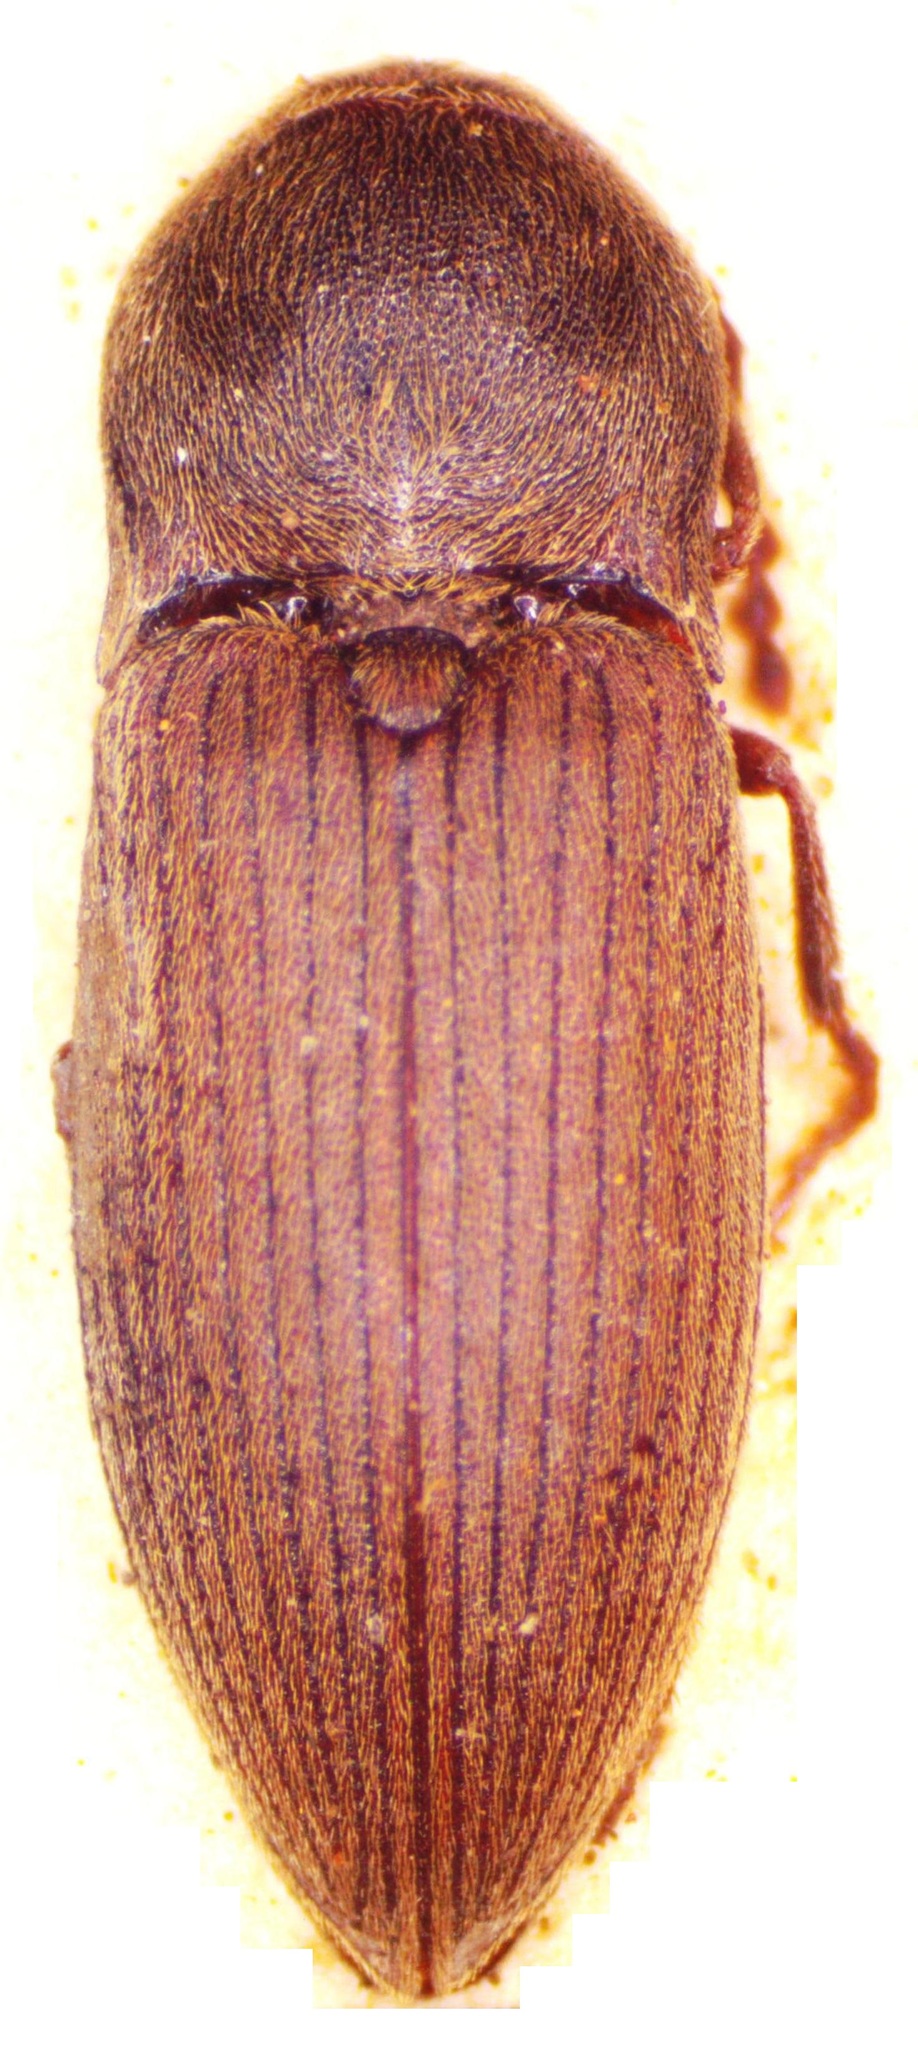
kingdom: Animalia
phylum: Arthropoda
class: Insecta
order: Coleoptera
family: Elateridae
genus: Agriotes
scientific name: Agriotes obscurus
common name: Dusky wireworm
